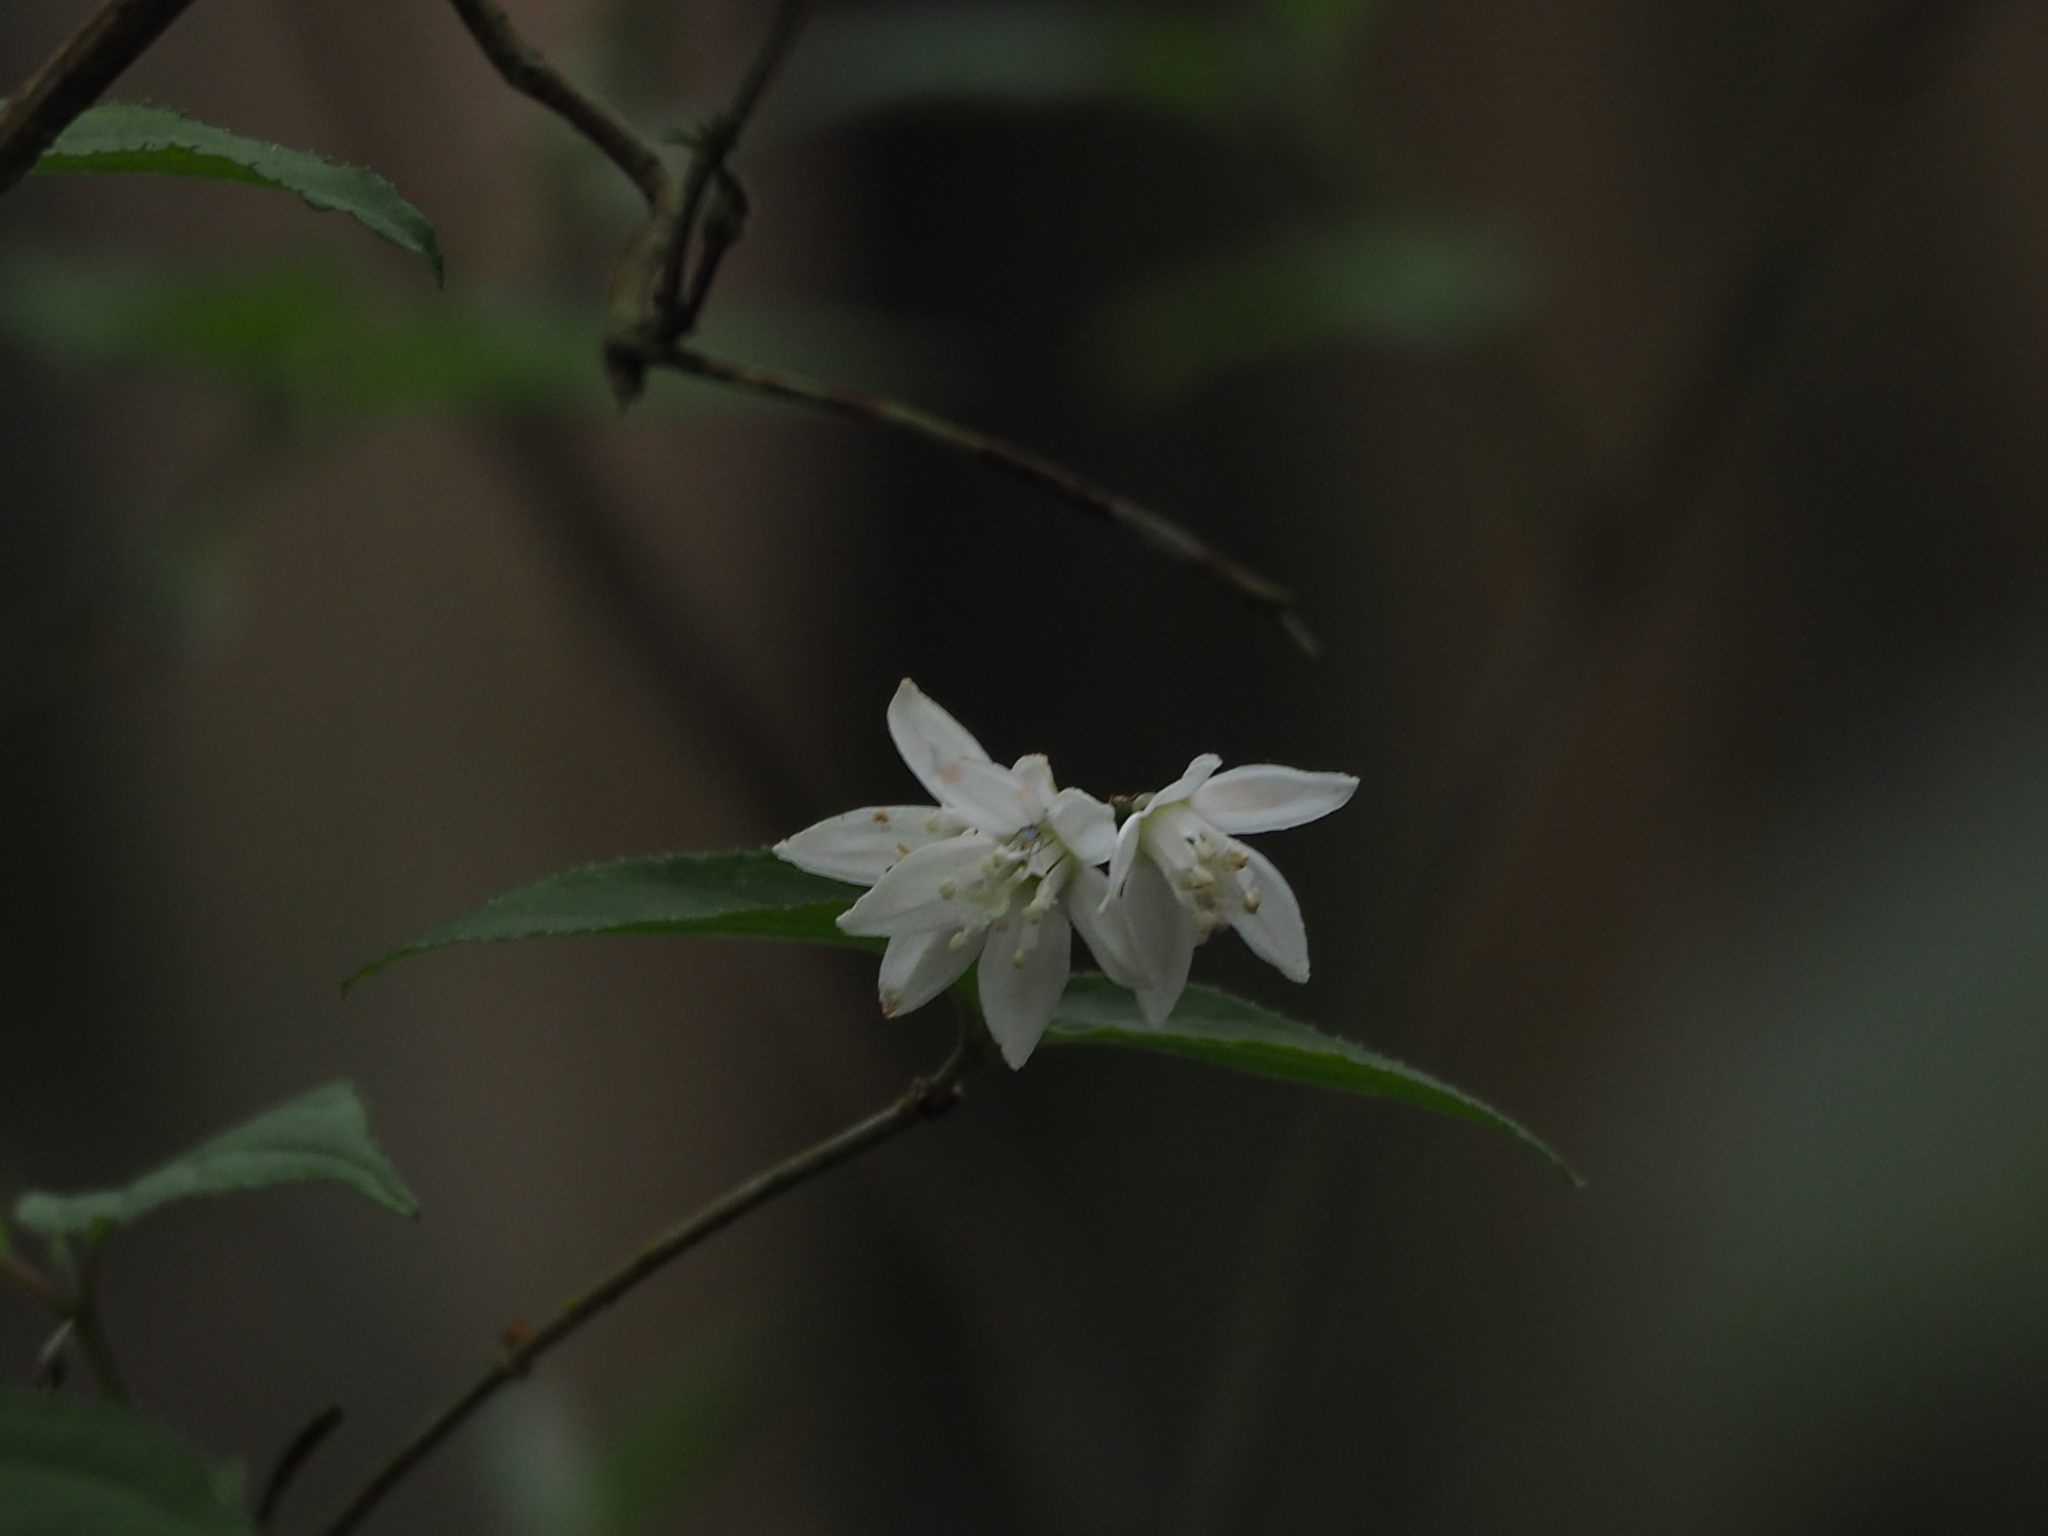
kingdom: Plantae
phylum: Tracheophyta
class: Magnoliopsida
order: Cornales
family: Hydrangeaceae
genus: Deutzia
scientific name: Deutzia taiwanensis
